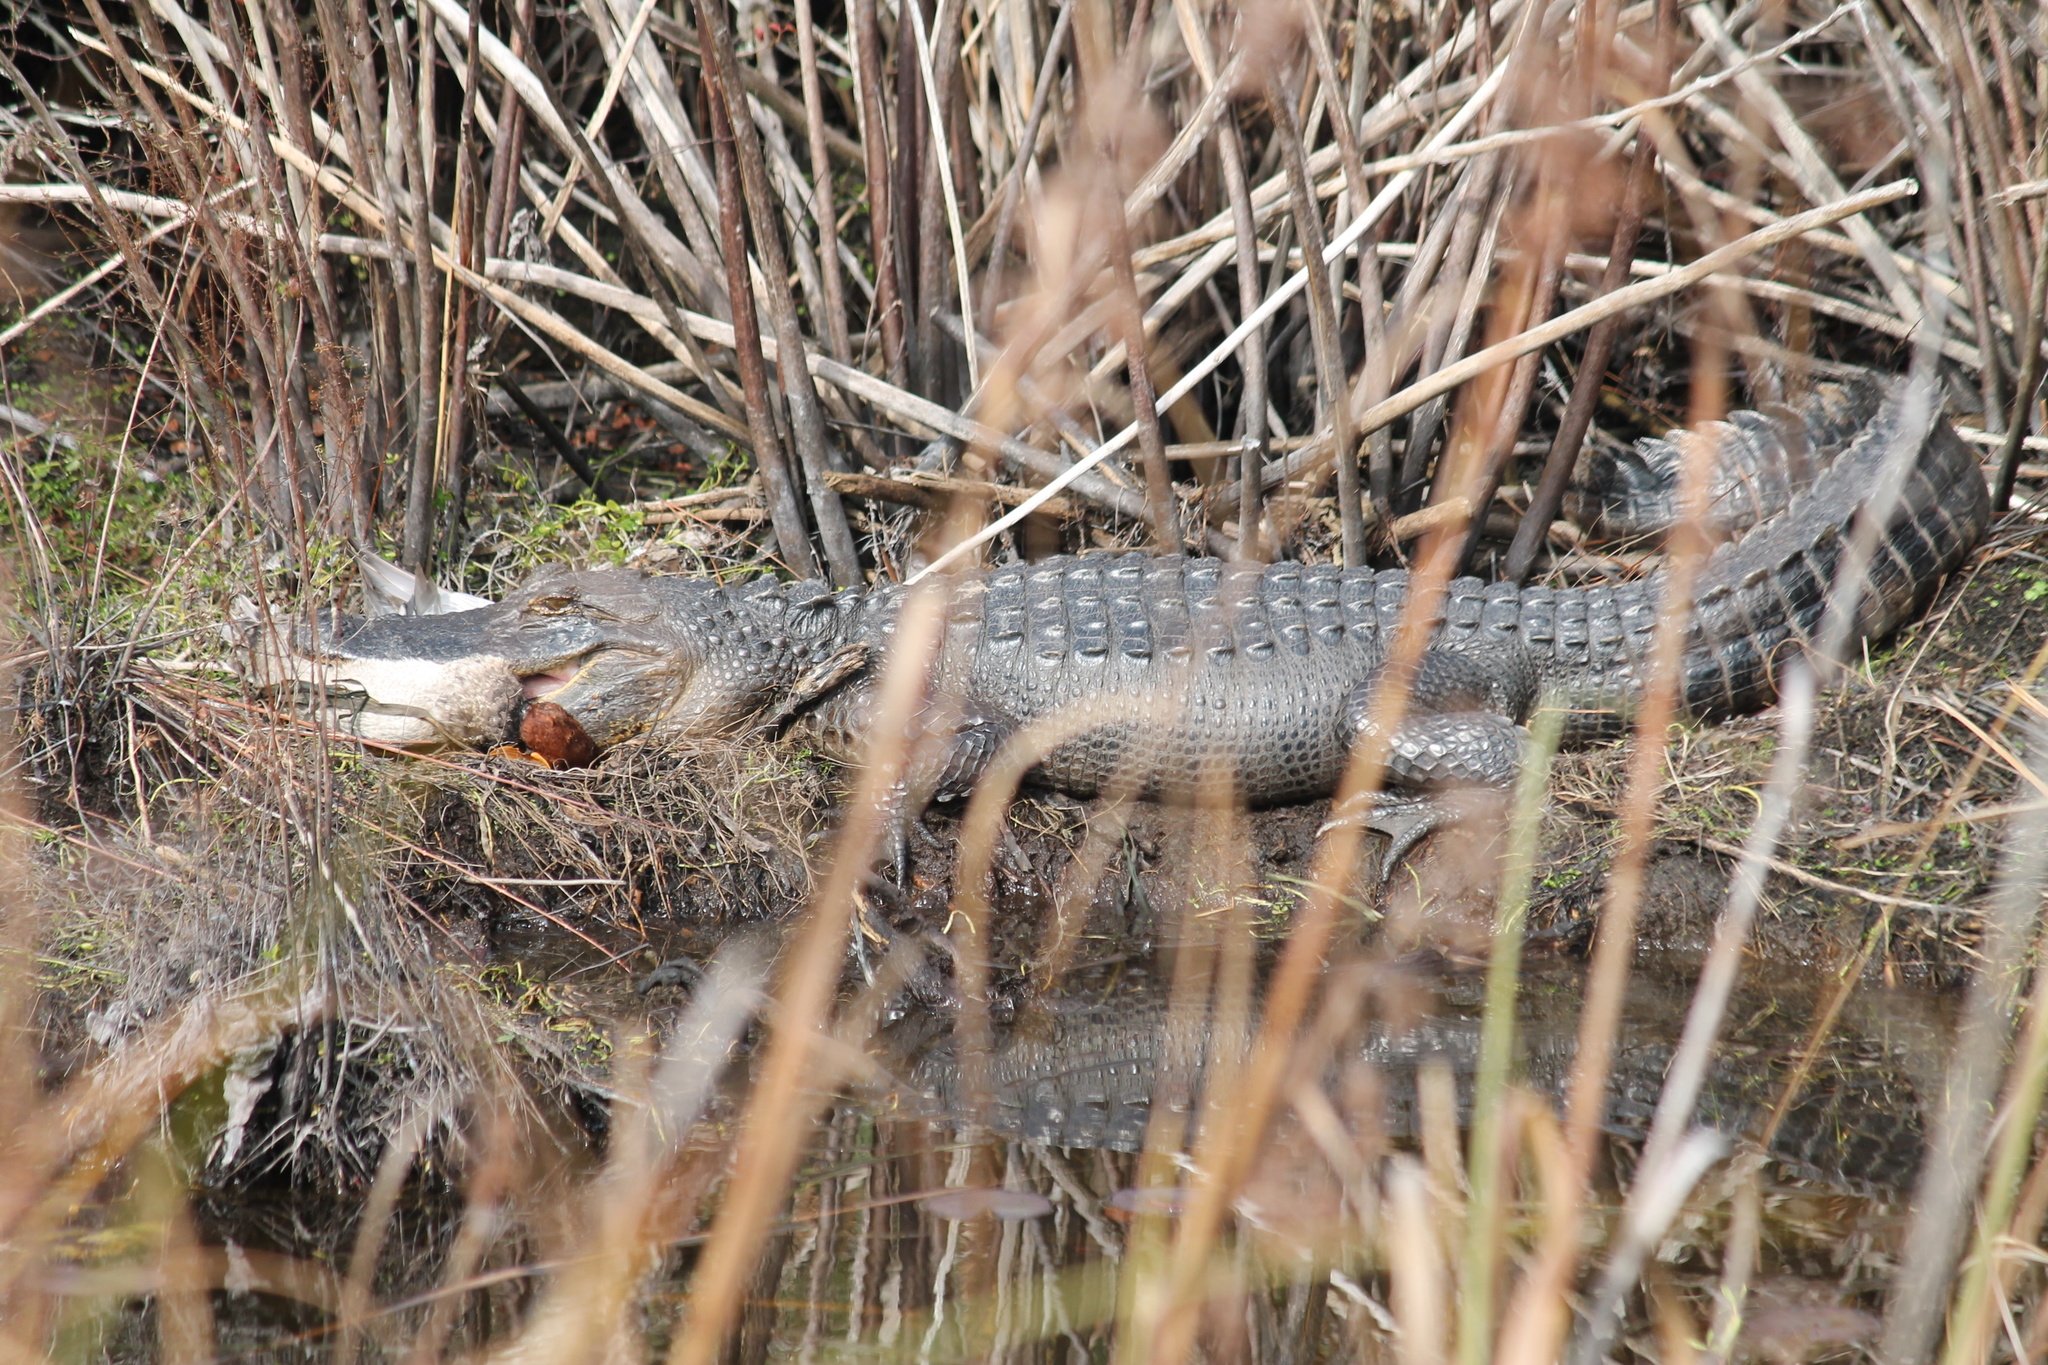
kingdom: Animalia
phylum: Chordata
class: Crocodylia
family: Alligatoridae
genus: Alligator
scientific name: Alligator mississippiensis
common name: American alligator
